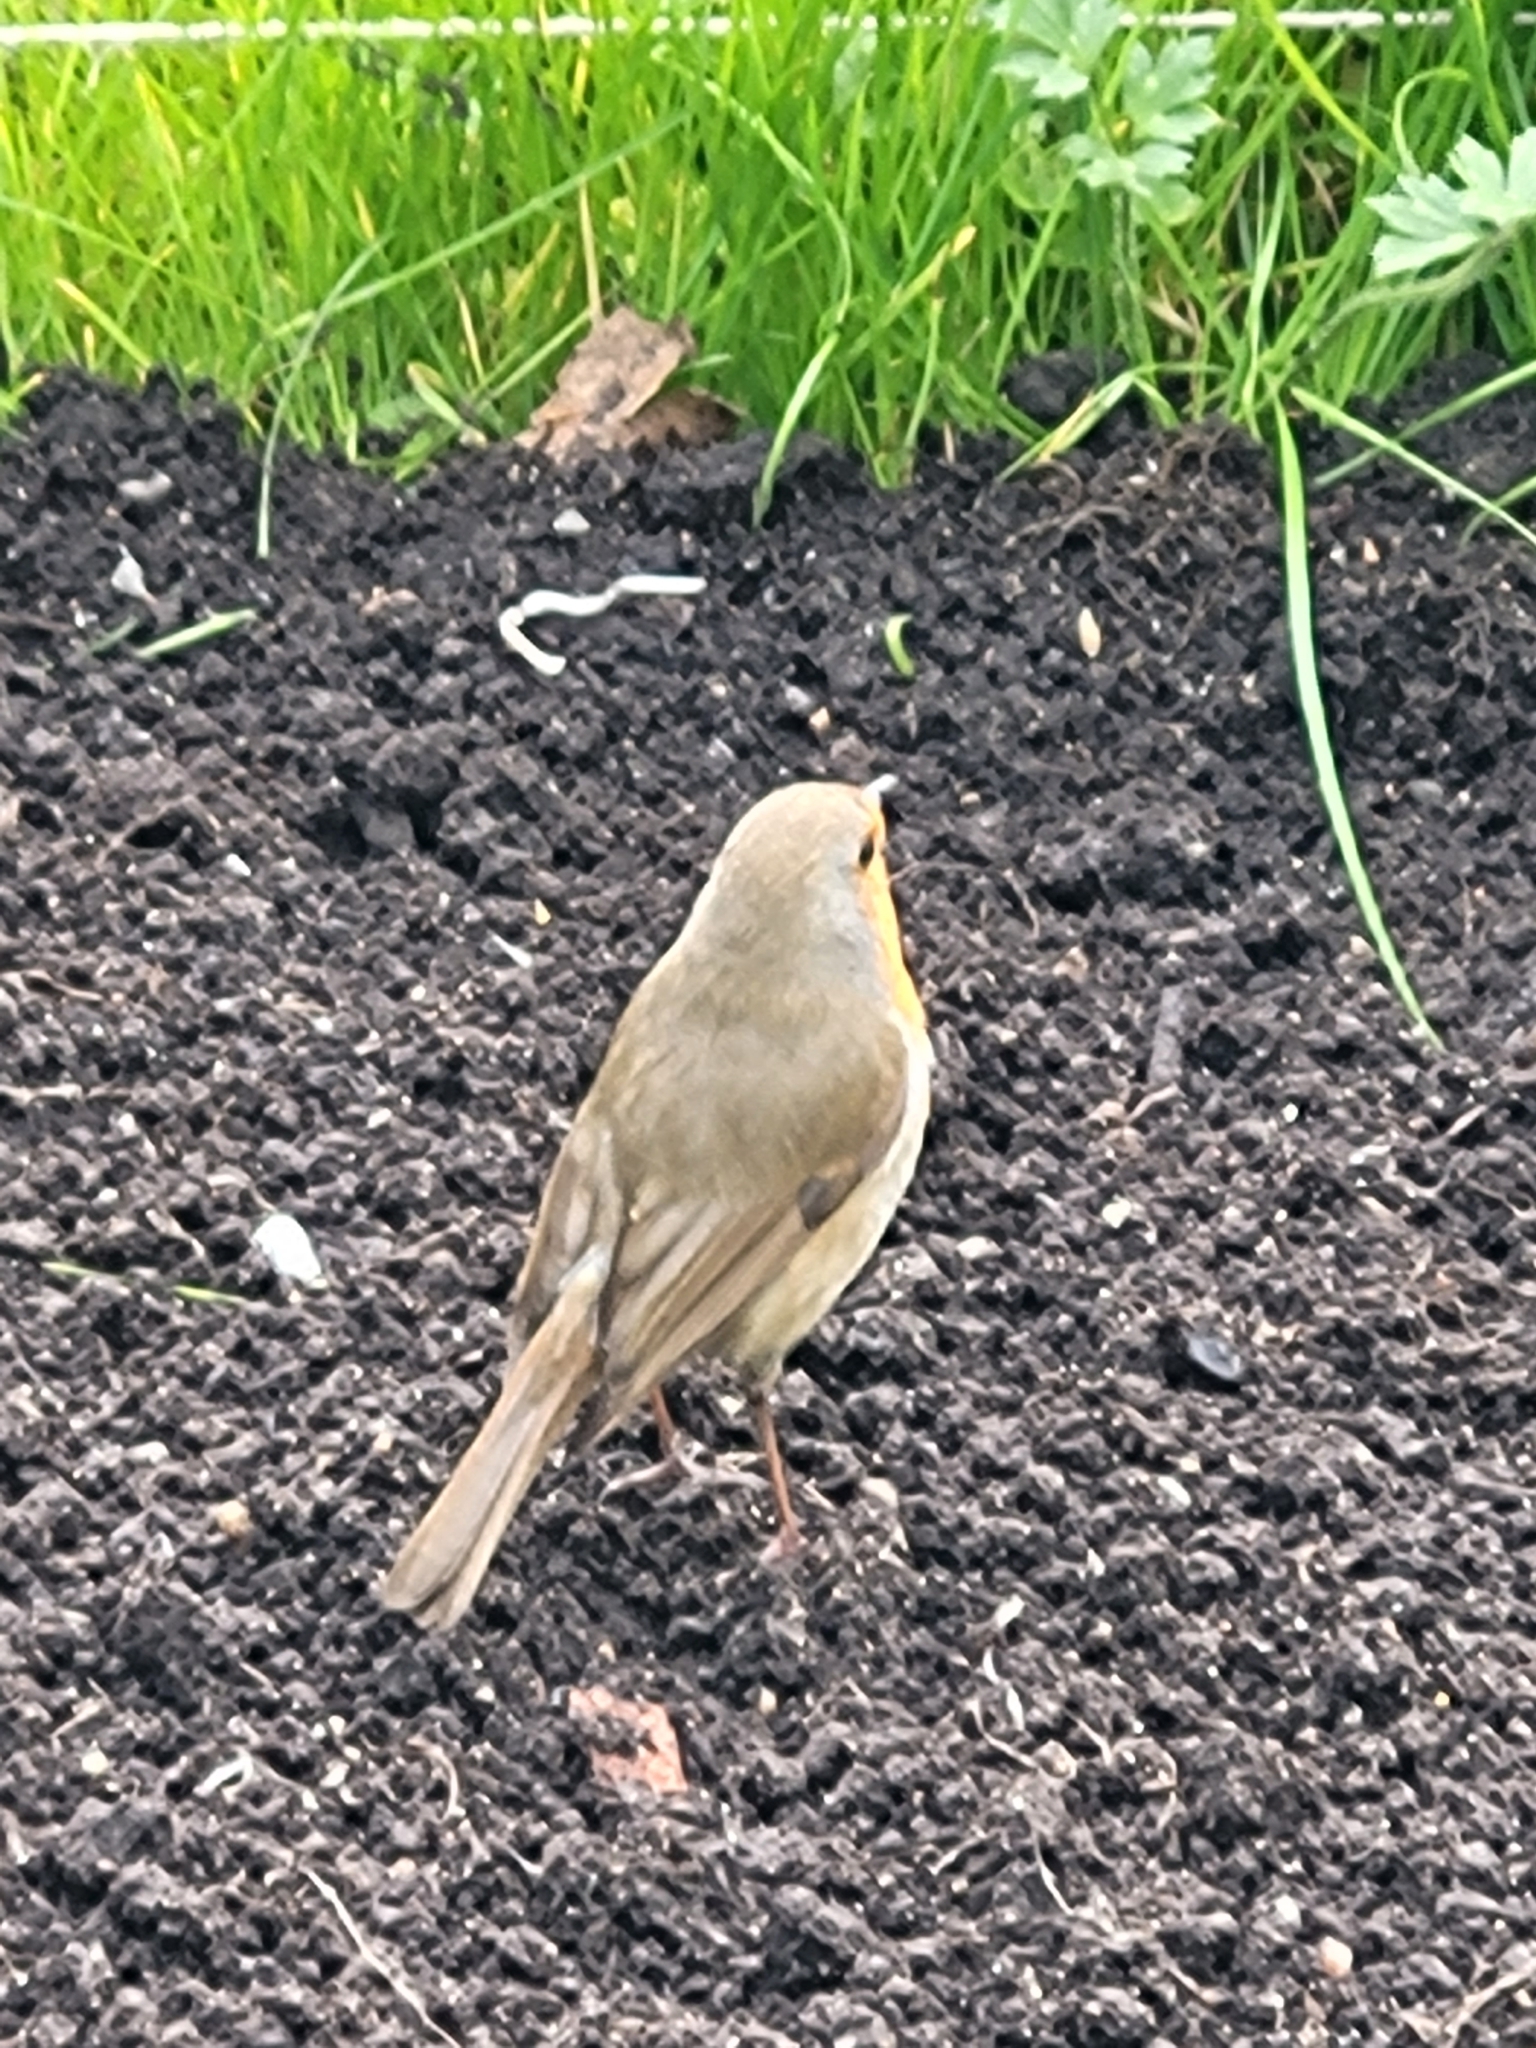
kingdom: Animalia
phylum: Chordata
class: Aves
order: Passeriformes
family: Muscicapidae
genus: Erithacus
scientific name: Erithacus rubecula
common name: European robin
